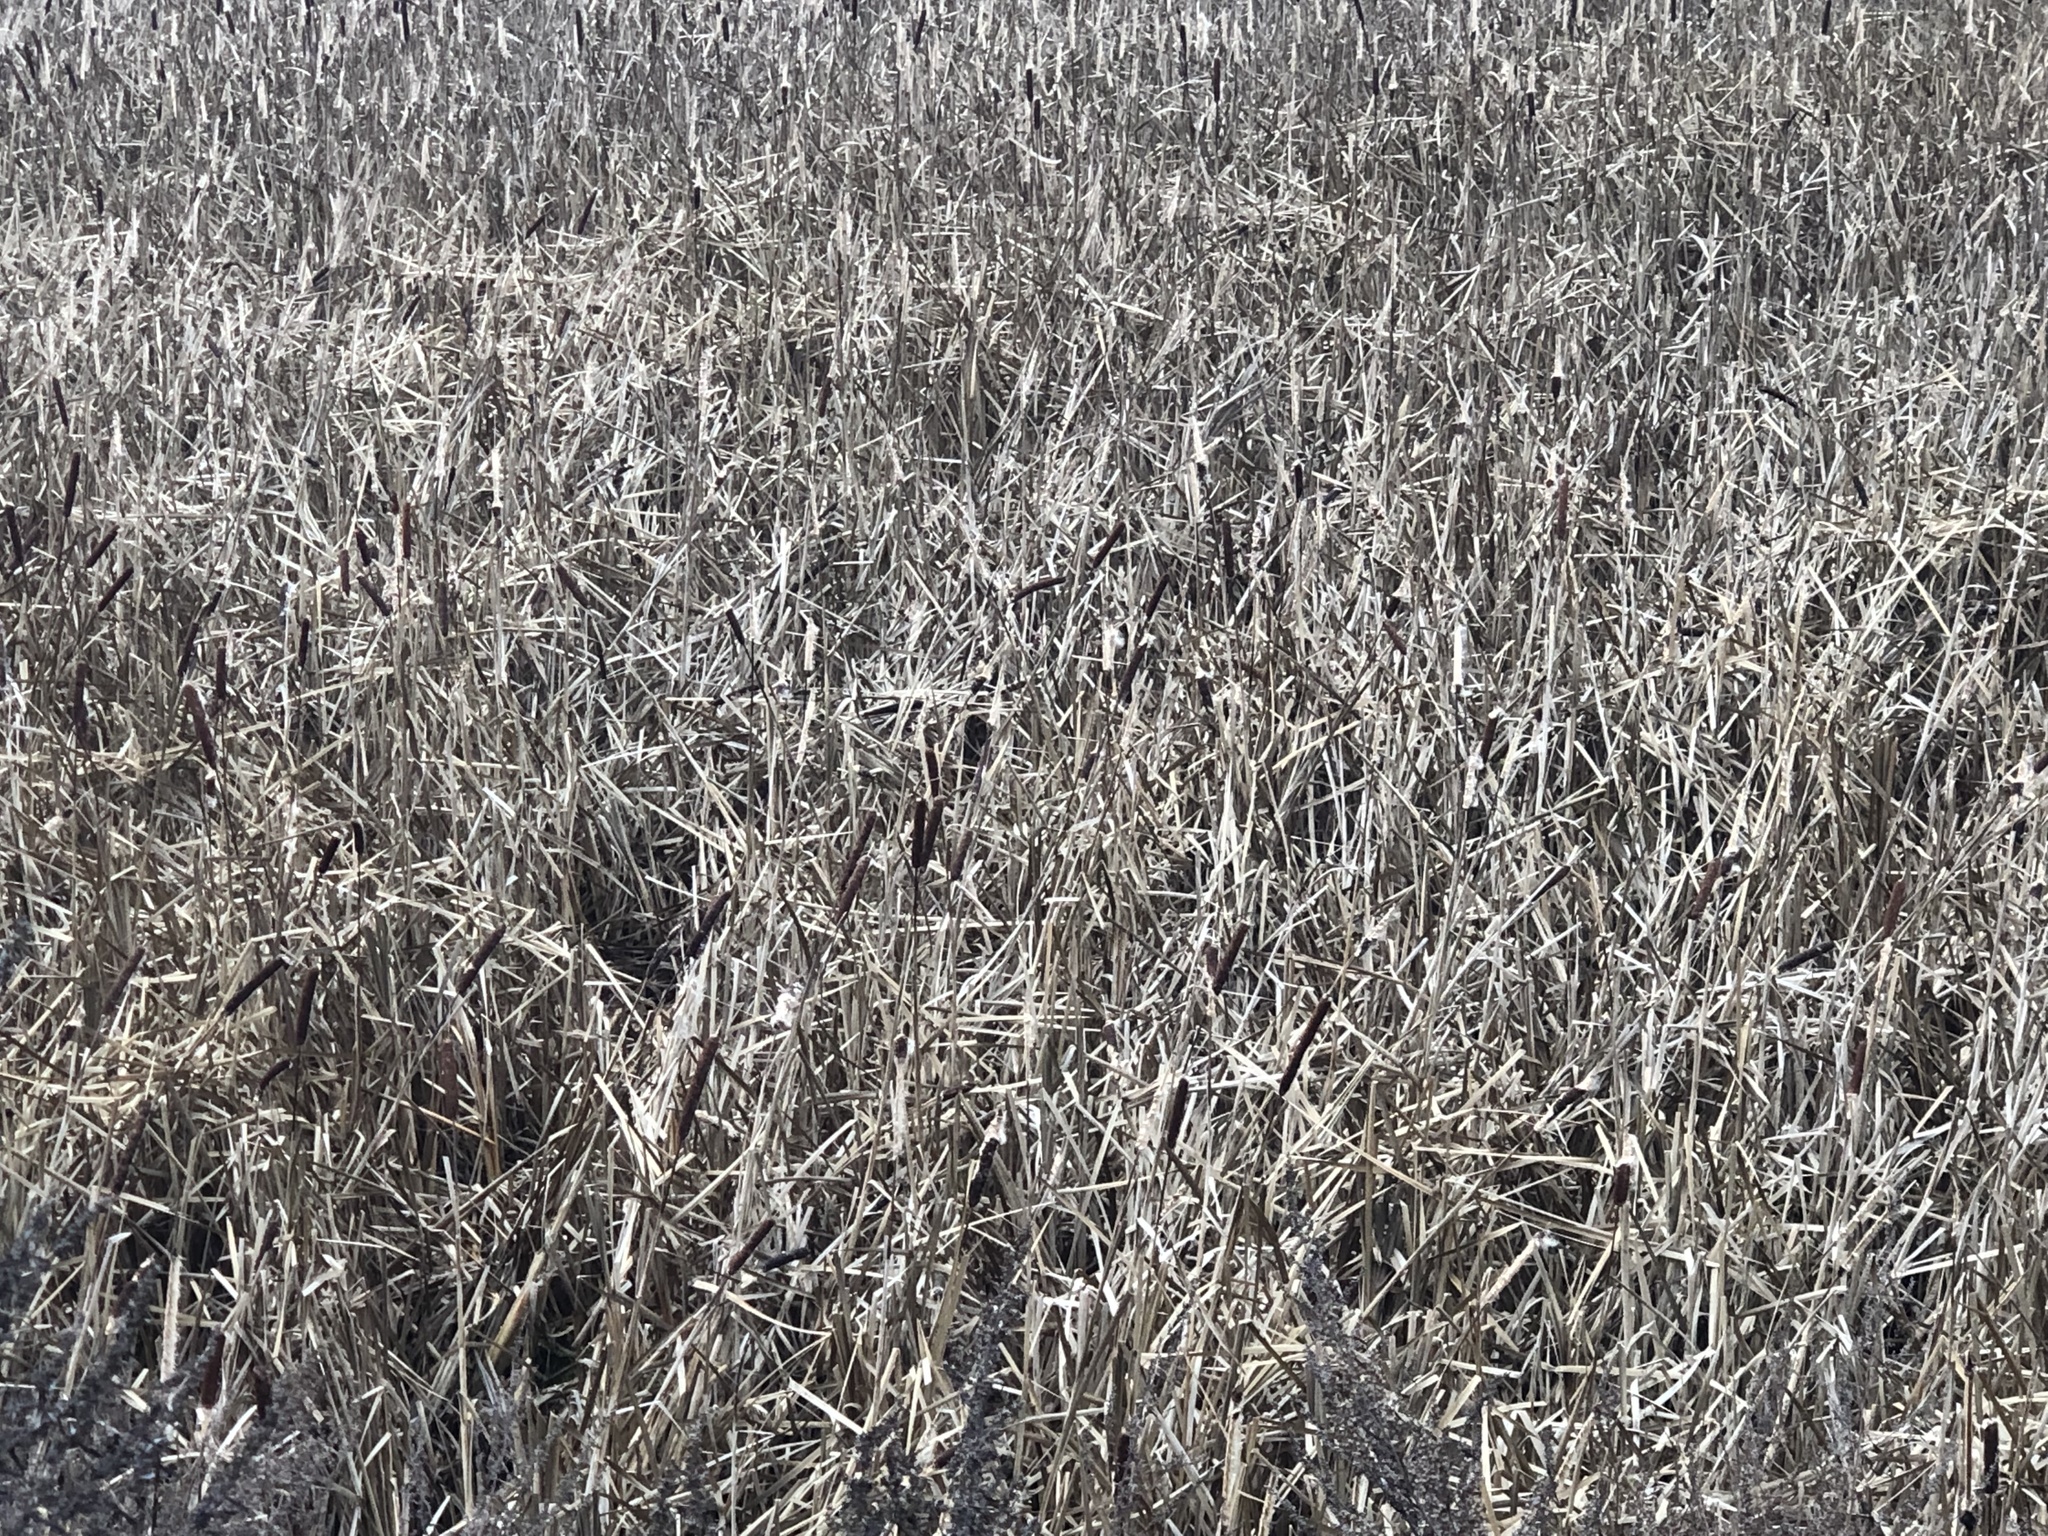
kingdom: Plantae
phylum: Tracheophyta
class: Liliopsida
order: Poales
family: Typhaceae
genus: Typha
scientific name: Typha latifolia
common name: Broadleaf cattail
